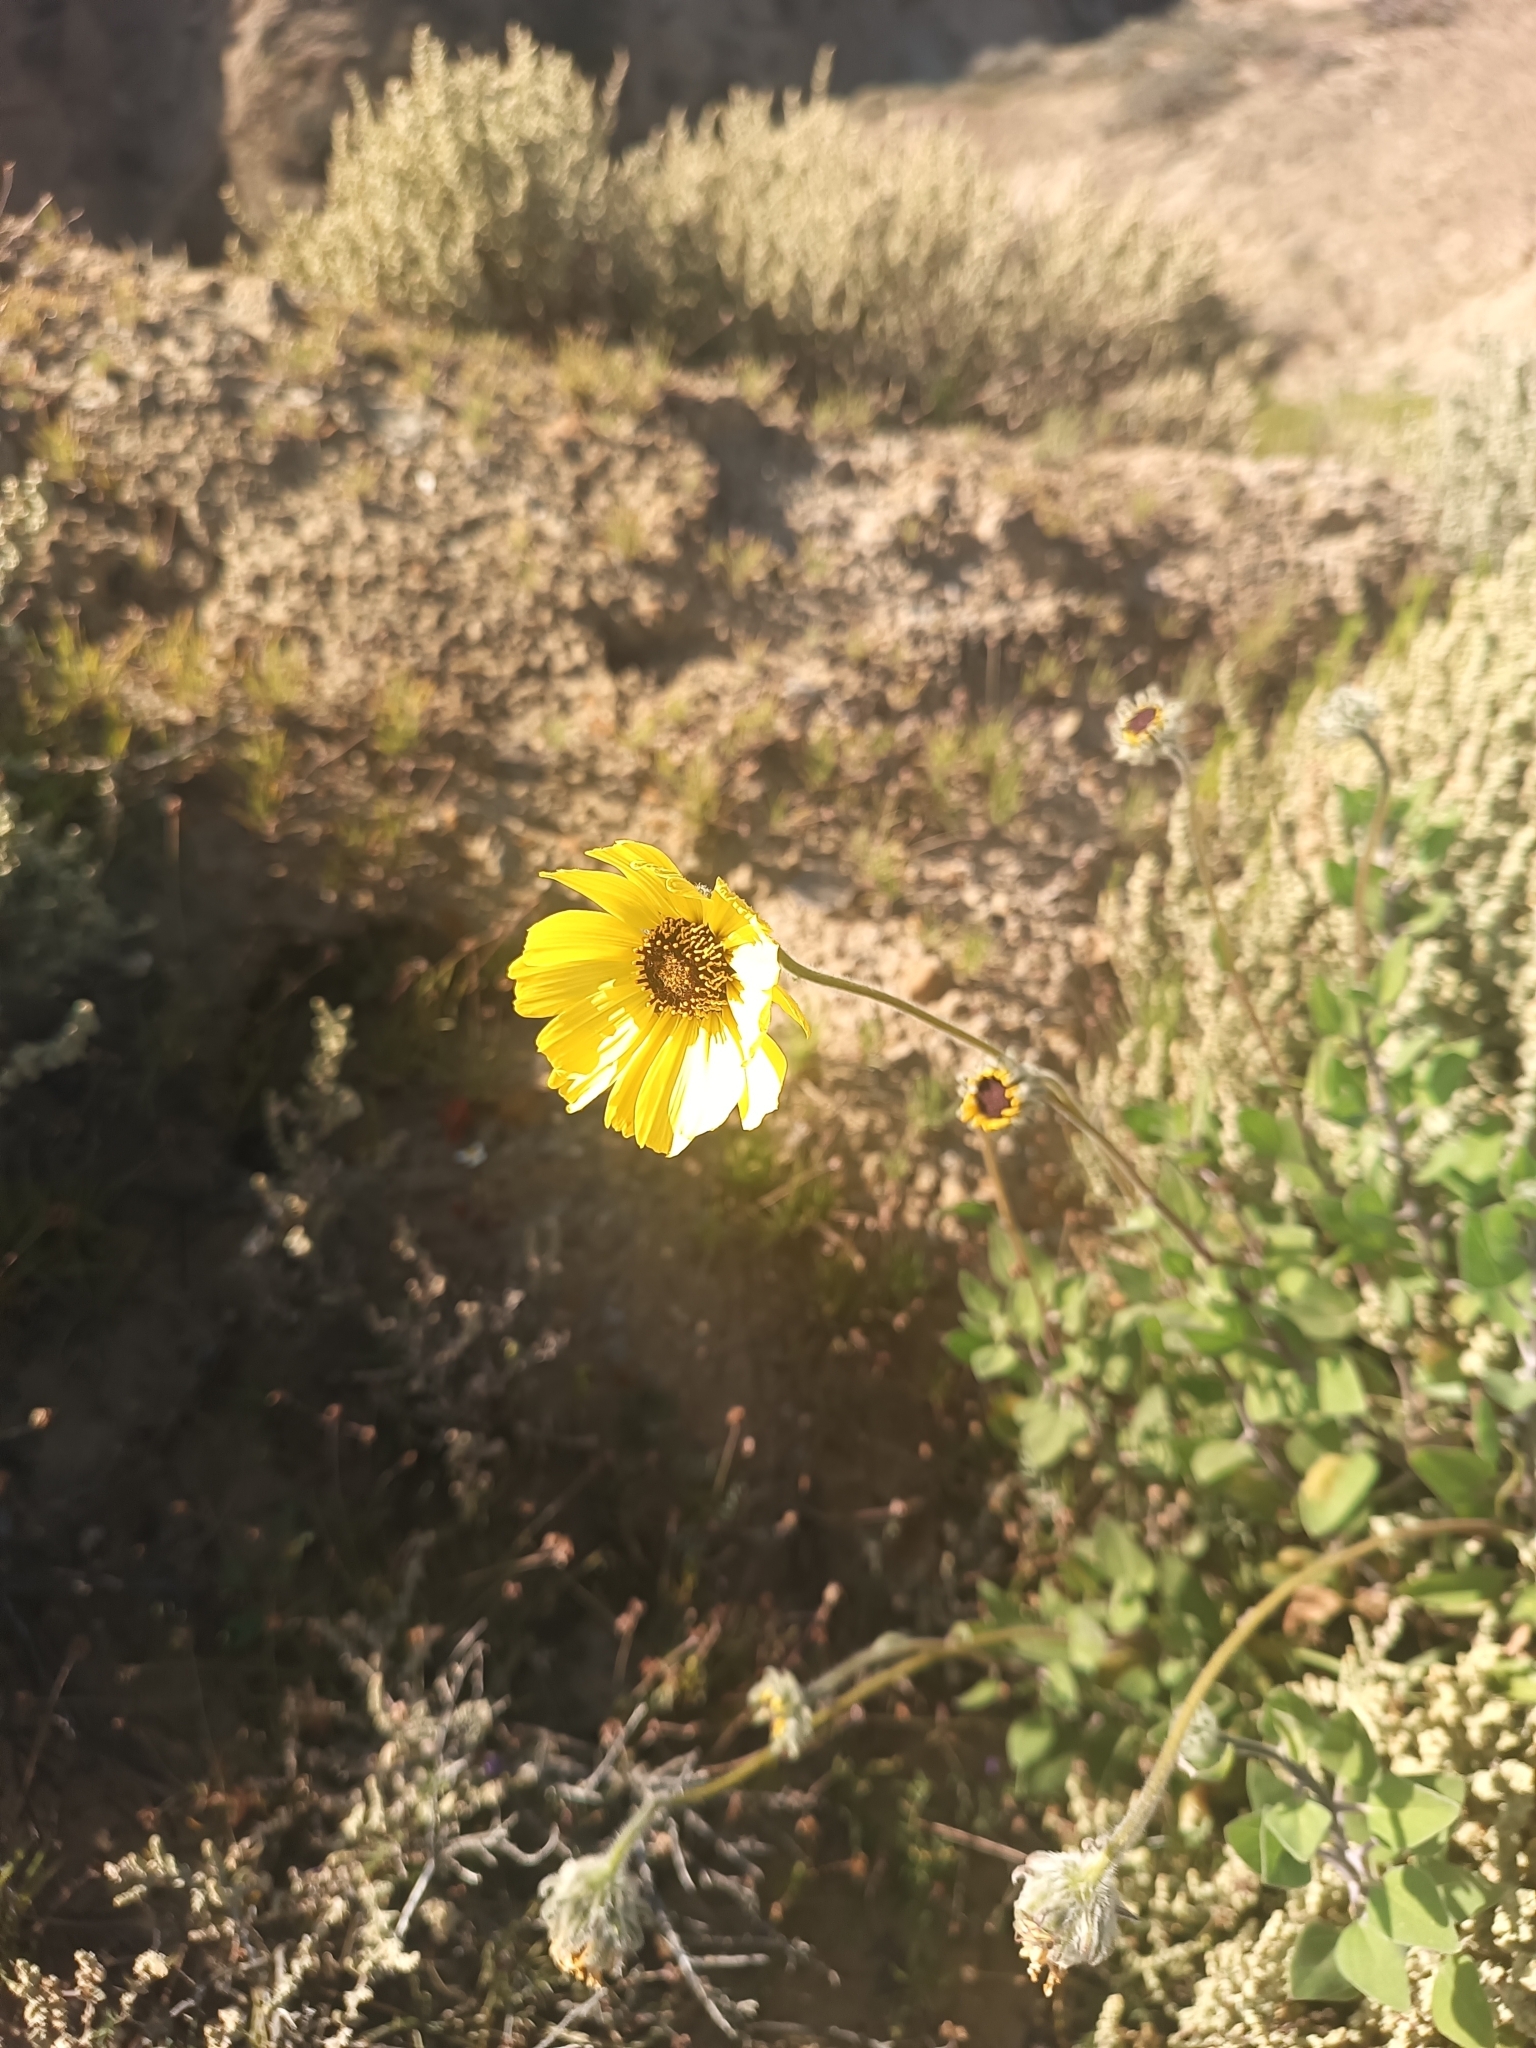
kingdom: Plantae
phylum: Tracheophyta
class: Magnoliopsida
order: Asterales
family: Asteraceae
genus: Encelia
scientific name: Encelia californica
